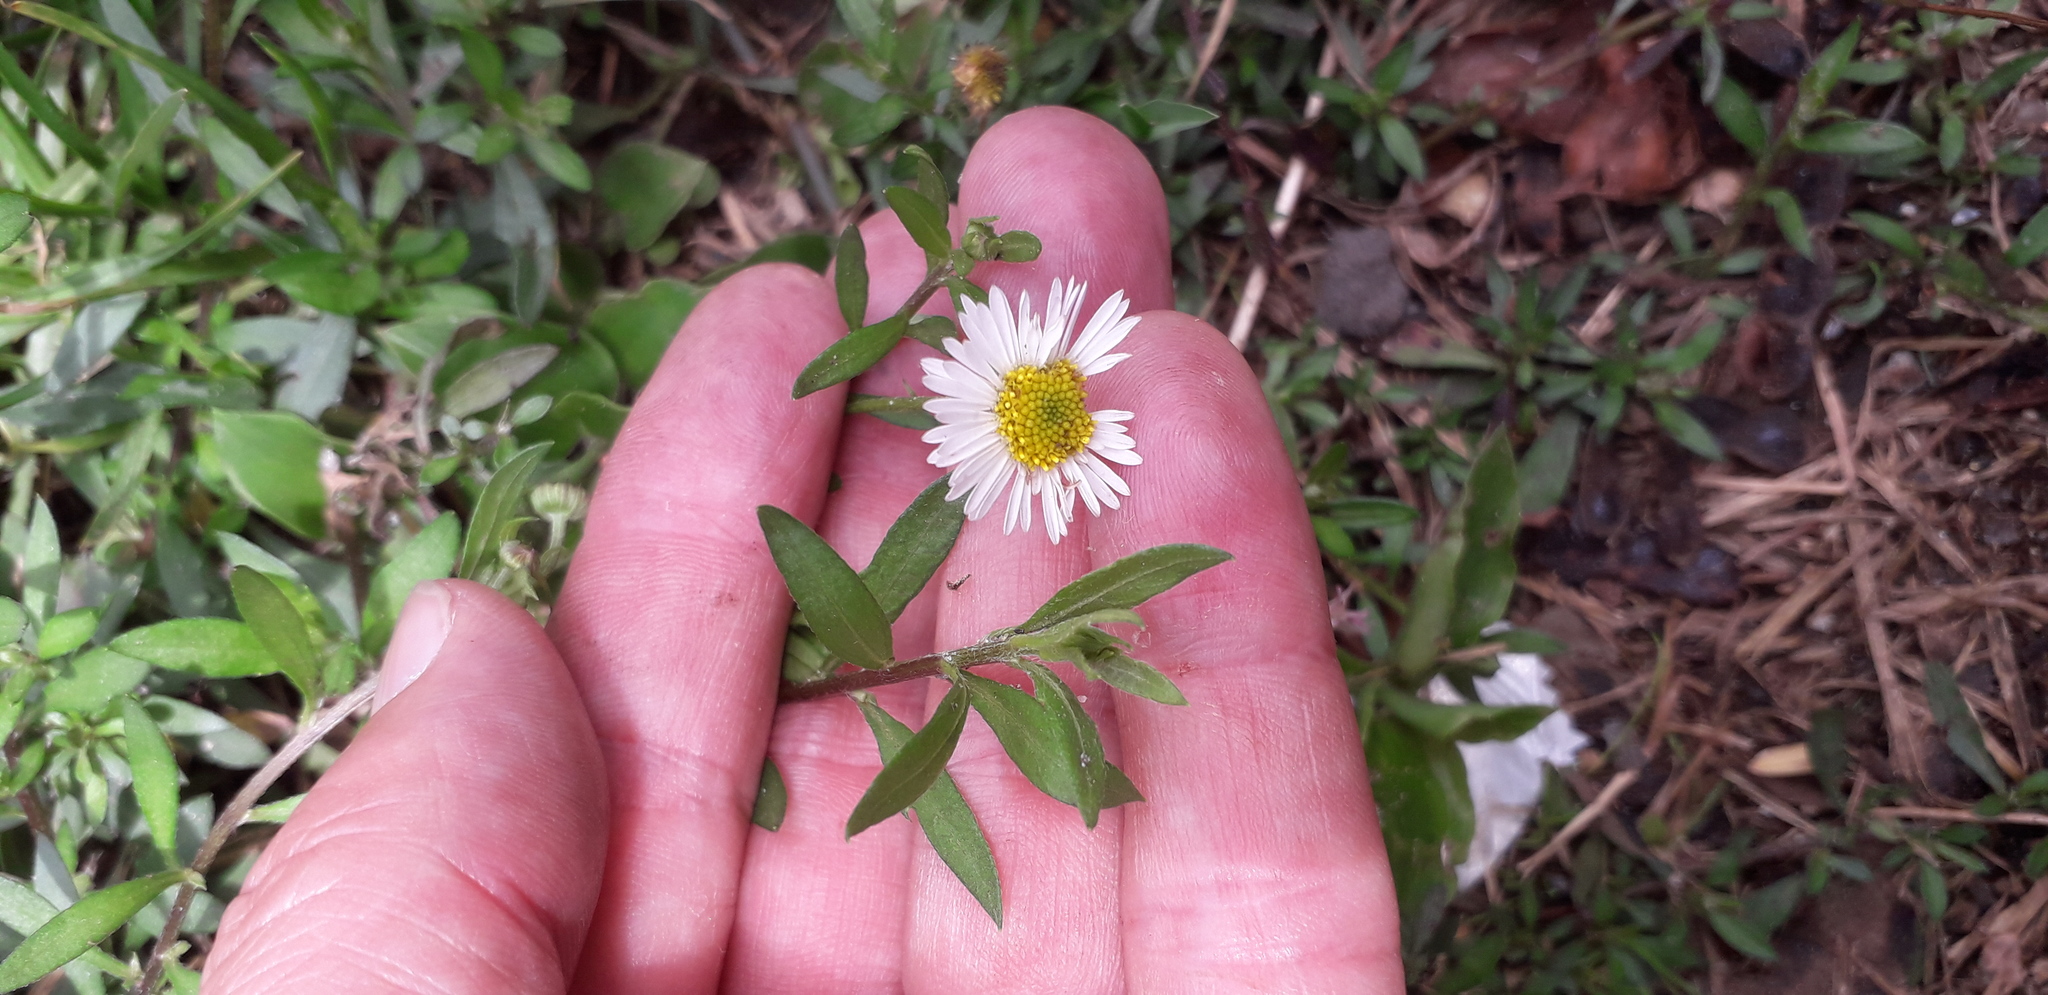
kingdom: Plantae
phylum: Tracheophyta
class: Magnoliopsida
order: Asterales
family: Asteraceae
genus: Erigeron
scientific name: Erigeron karvinskianus
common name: Mexican fleabane
